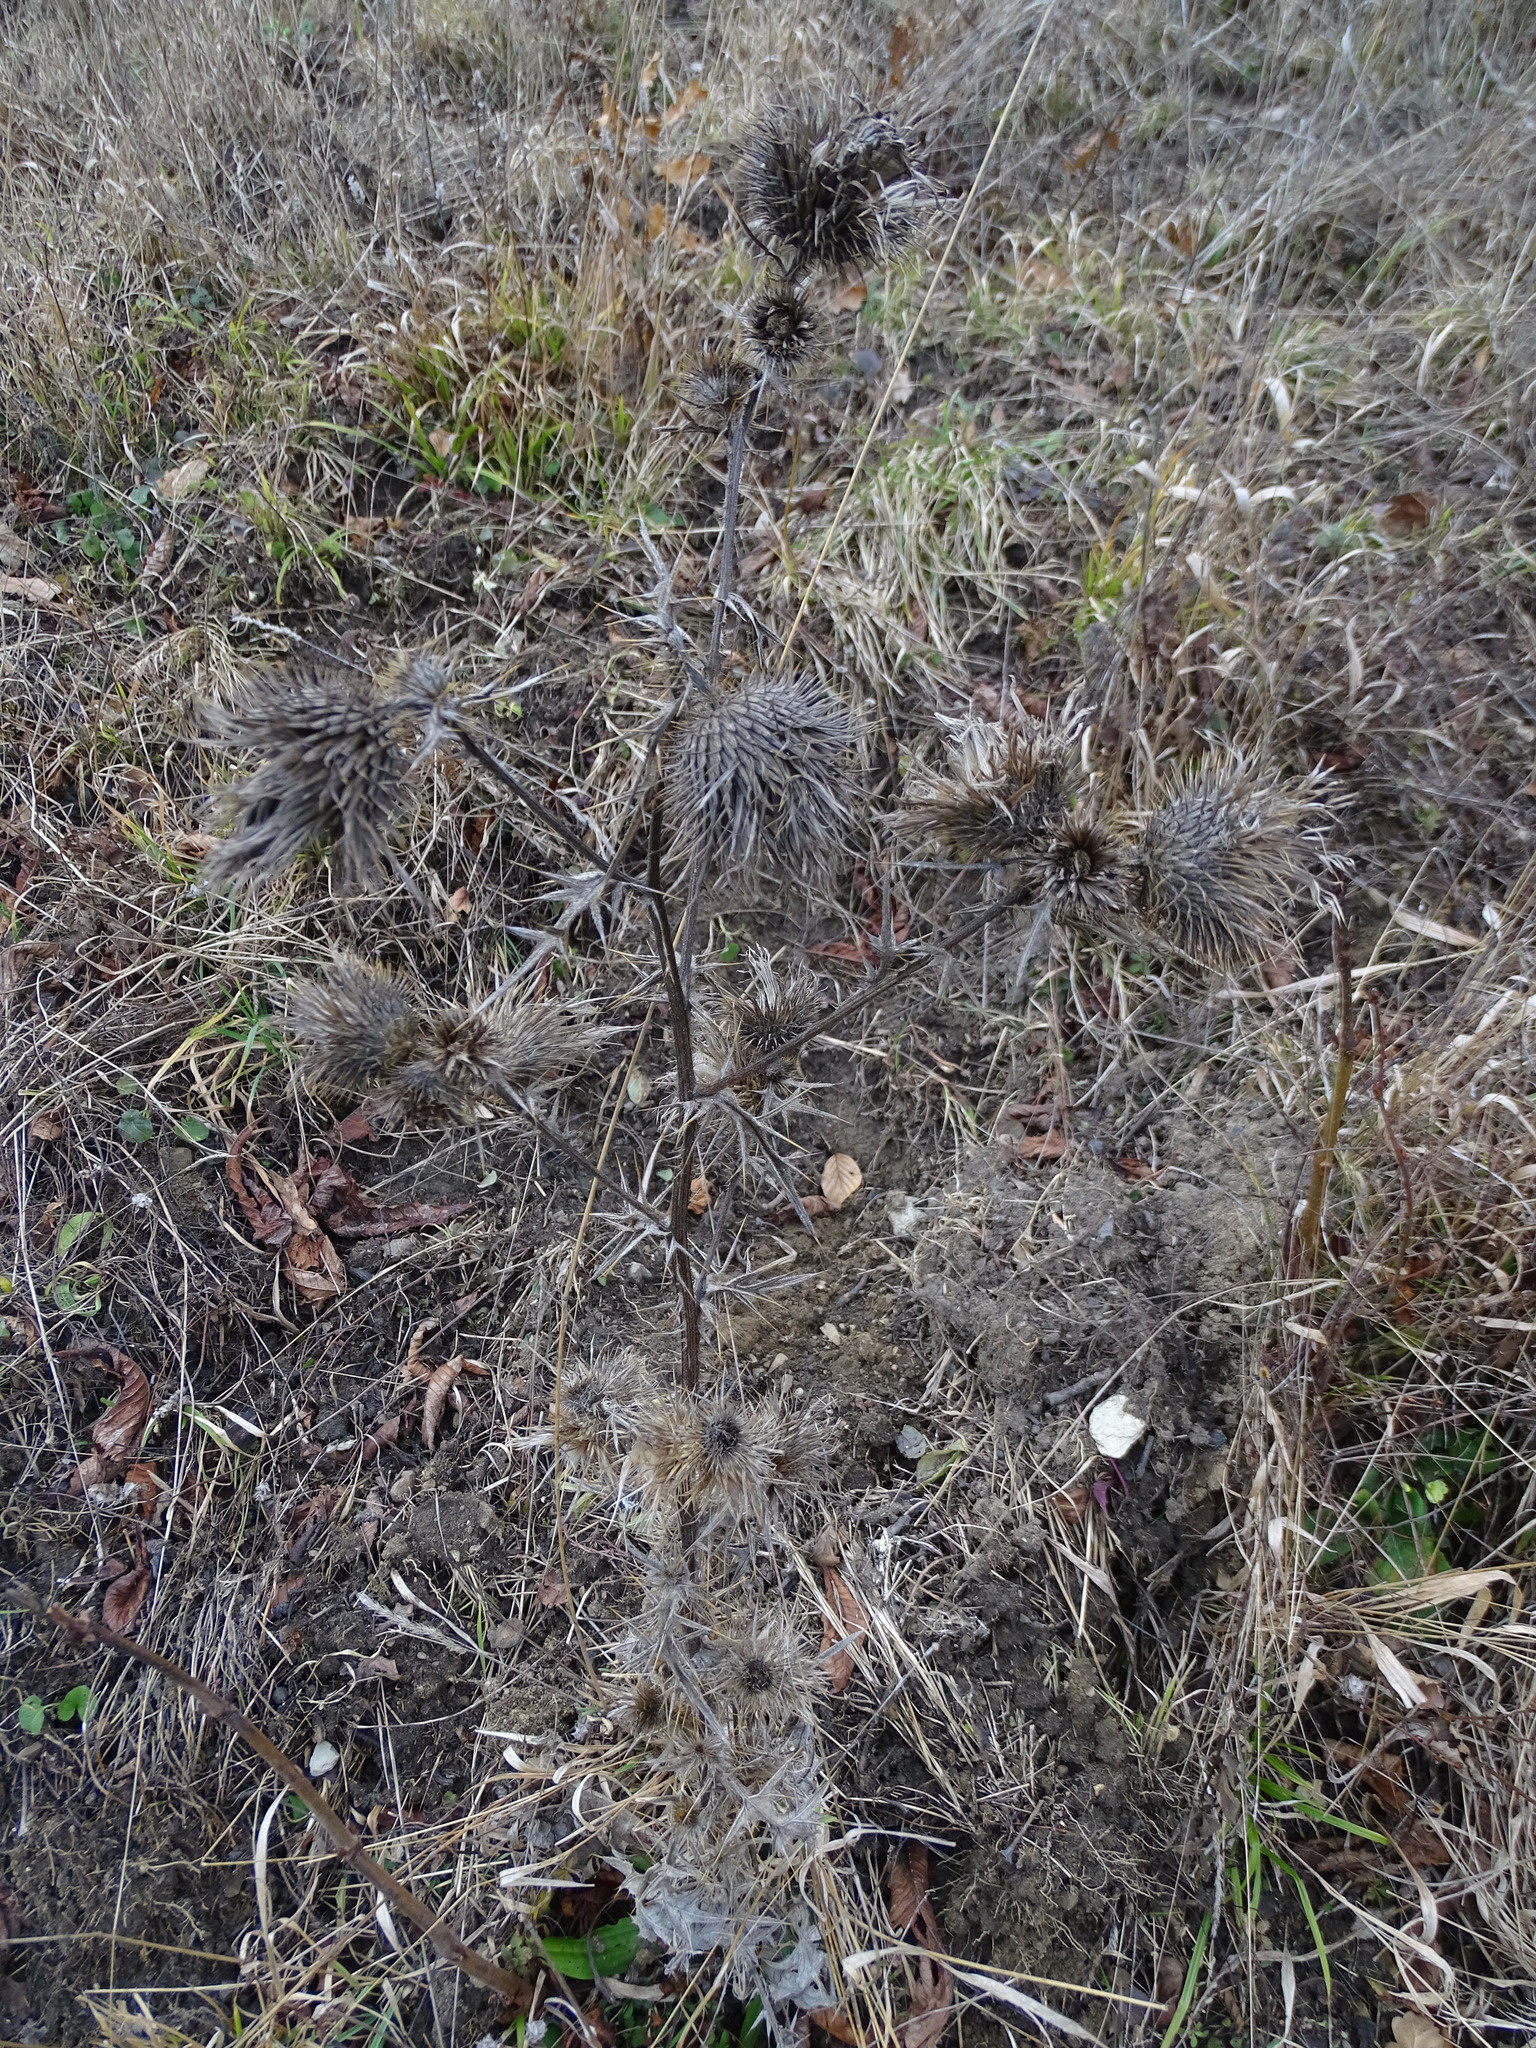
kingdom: Plantae
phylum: Tracheophyta
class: Magnoliopsida
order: Asterales
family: Asteraceae
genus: Cirsium
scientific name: Cirsium vulgare
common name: Bull thistle
